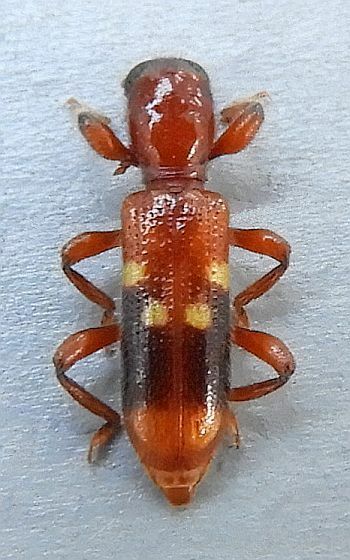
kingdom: Animalia
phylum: Arthropoda
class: Insecta
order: Coleoptera
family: Cleridae
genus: Priocera
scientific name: Priocera castanea
